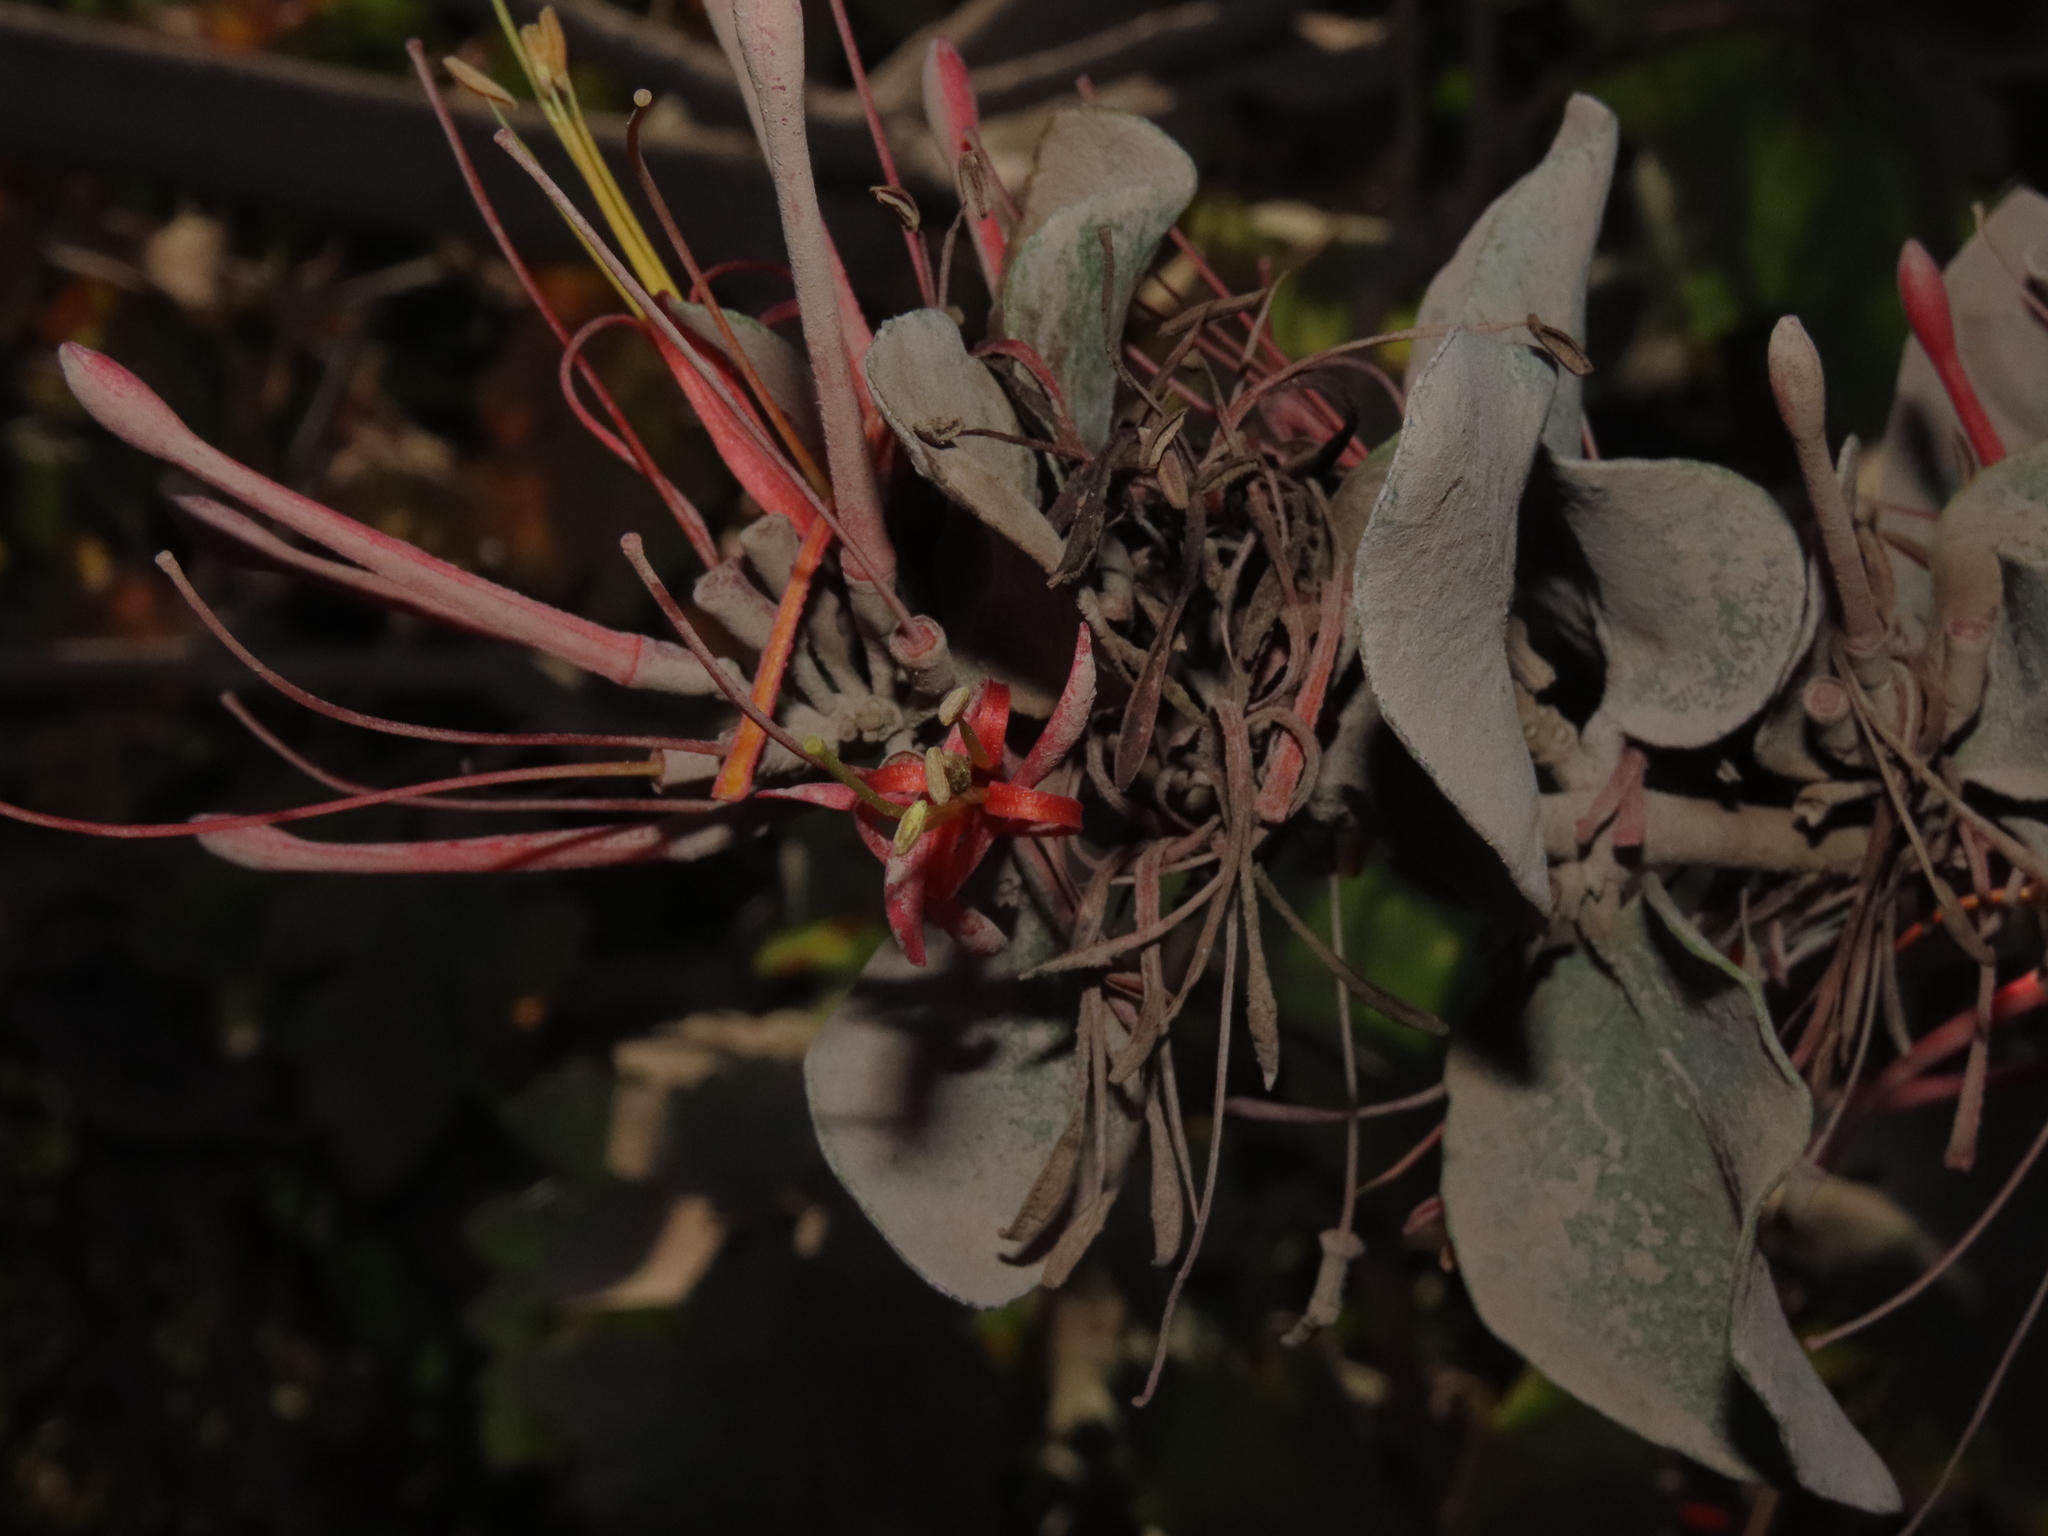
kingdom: Plantae
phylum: Tracheophyta
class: Magnoliopsida
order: Santalales
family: Loranthaceae
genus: Tristerix
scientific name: Tristerix corymbosus
